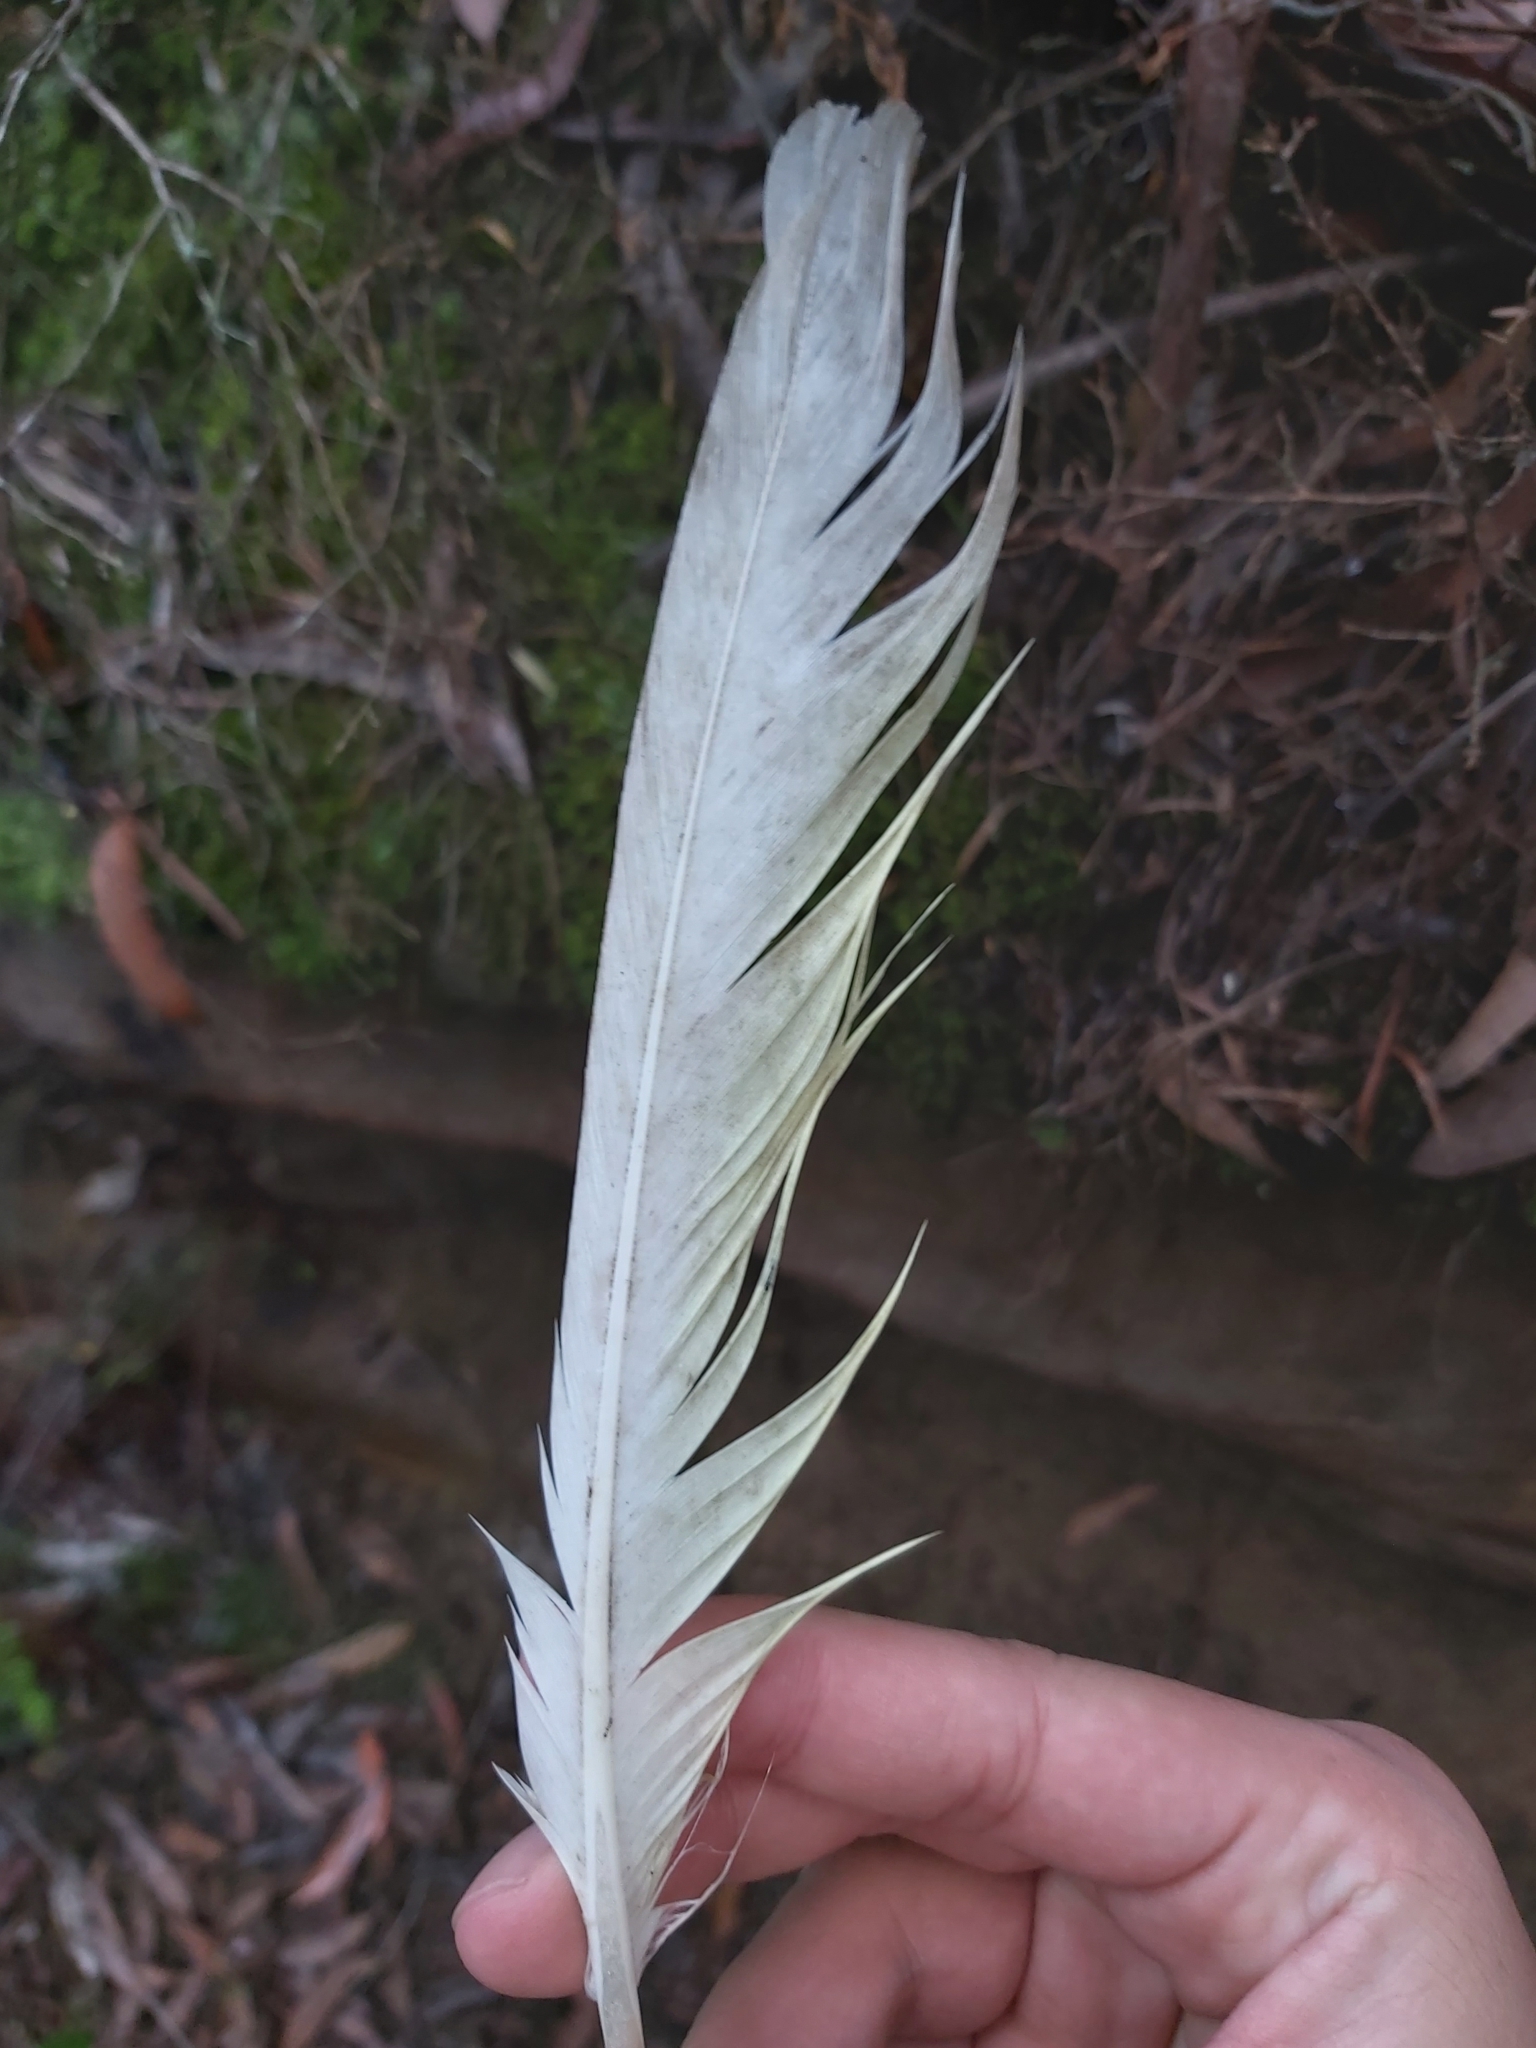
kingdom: Animalia
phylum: Chordata
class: Aves
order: Psittaciformes
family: Psittacidae
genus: Cacatua
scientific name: Cacatua galerita
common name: Sulphur-crested cockatoo
